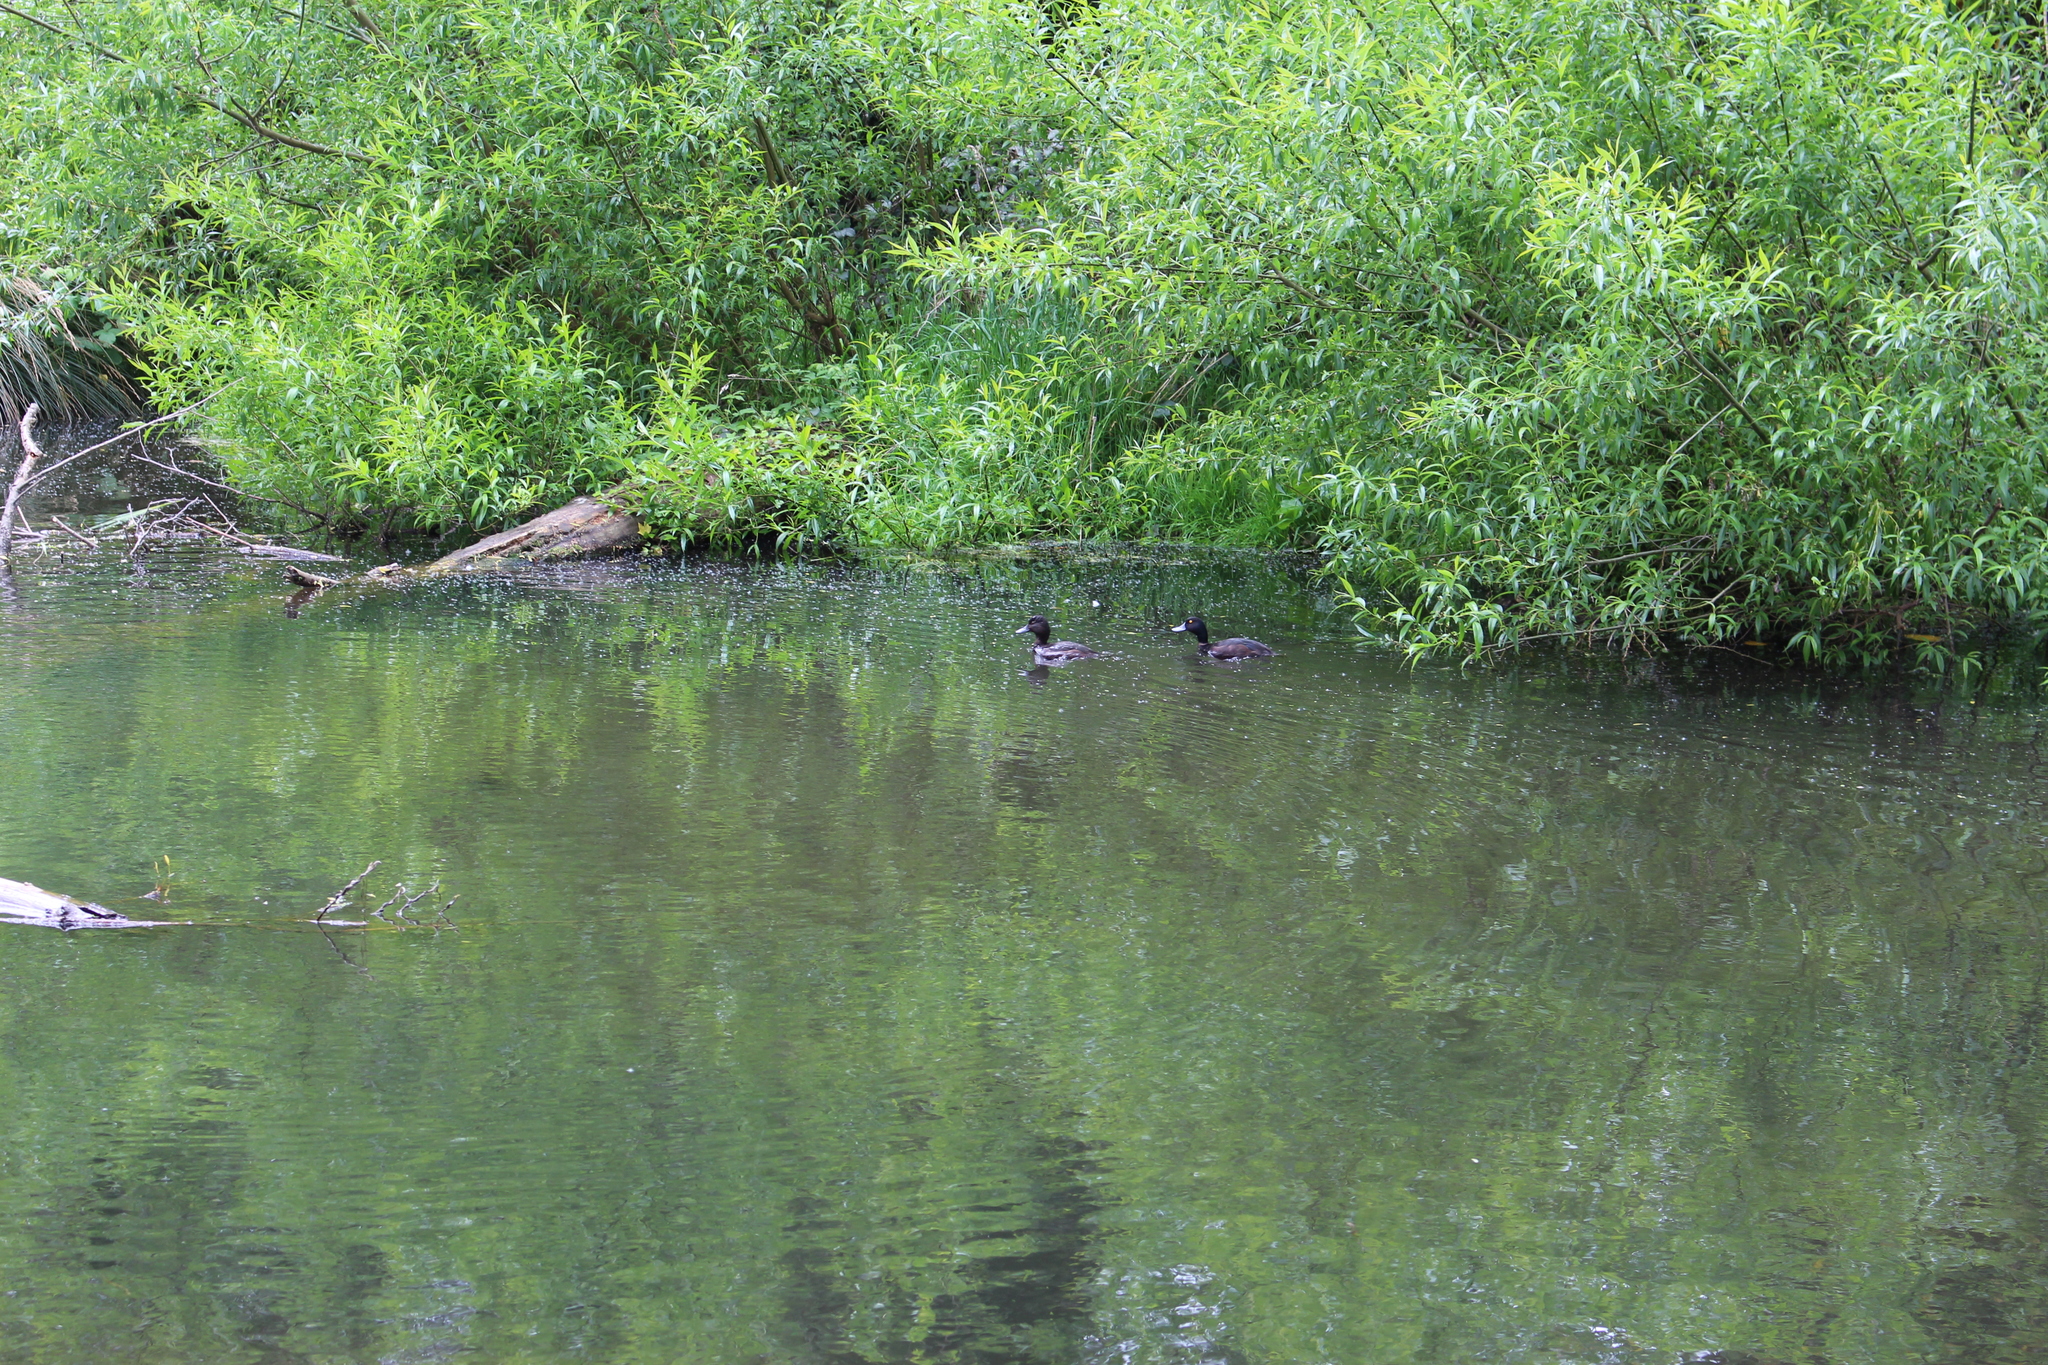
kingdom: Animalia
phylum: Chordata
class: Aves
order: Anseriformes
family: Anatidae
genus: Aythya
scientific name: Aythya novaeseelandiae
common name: New zealand scaup
